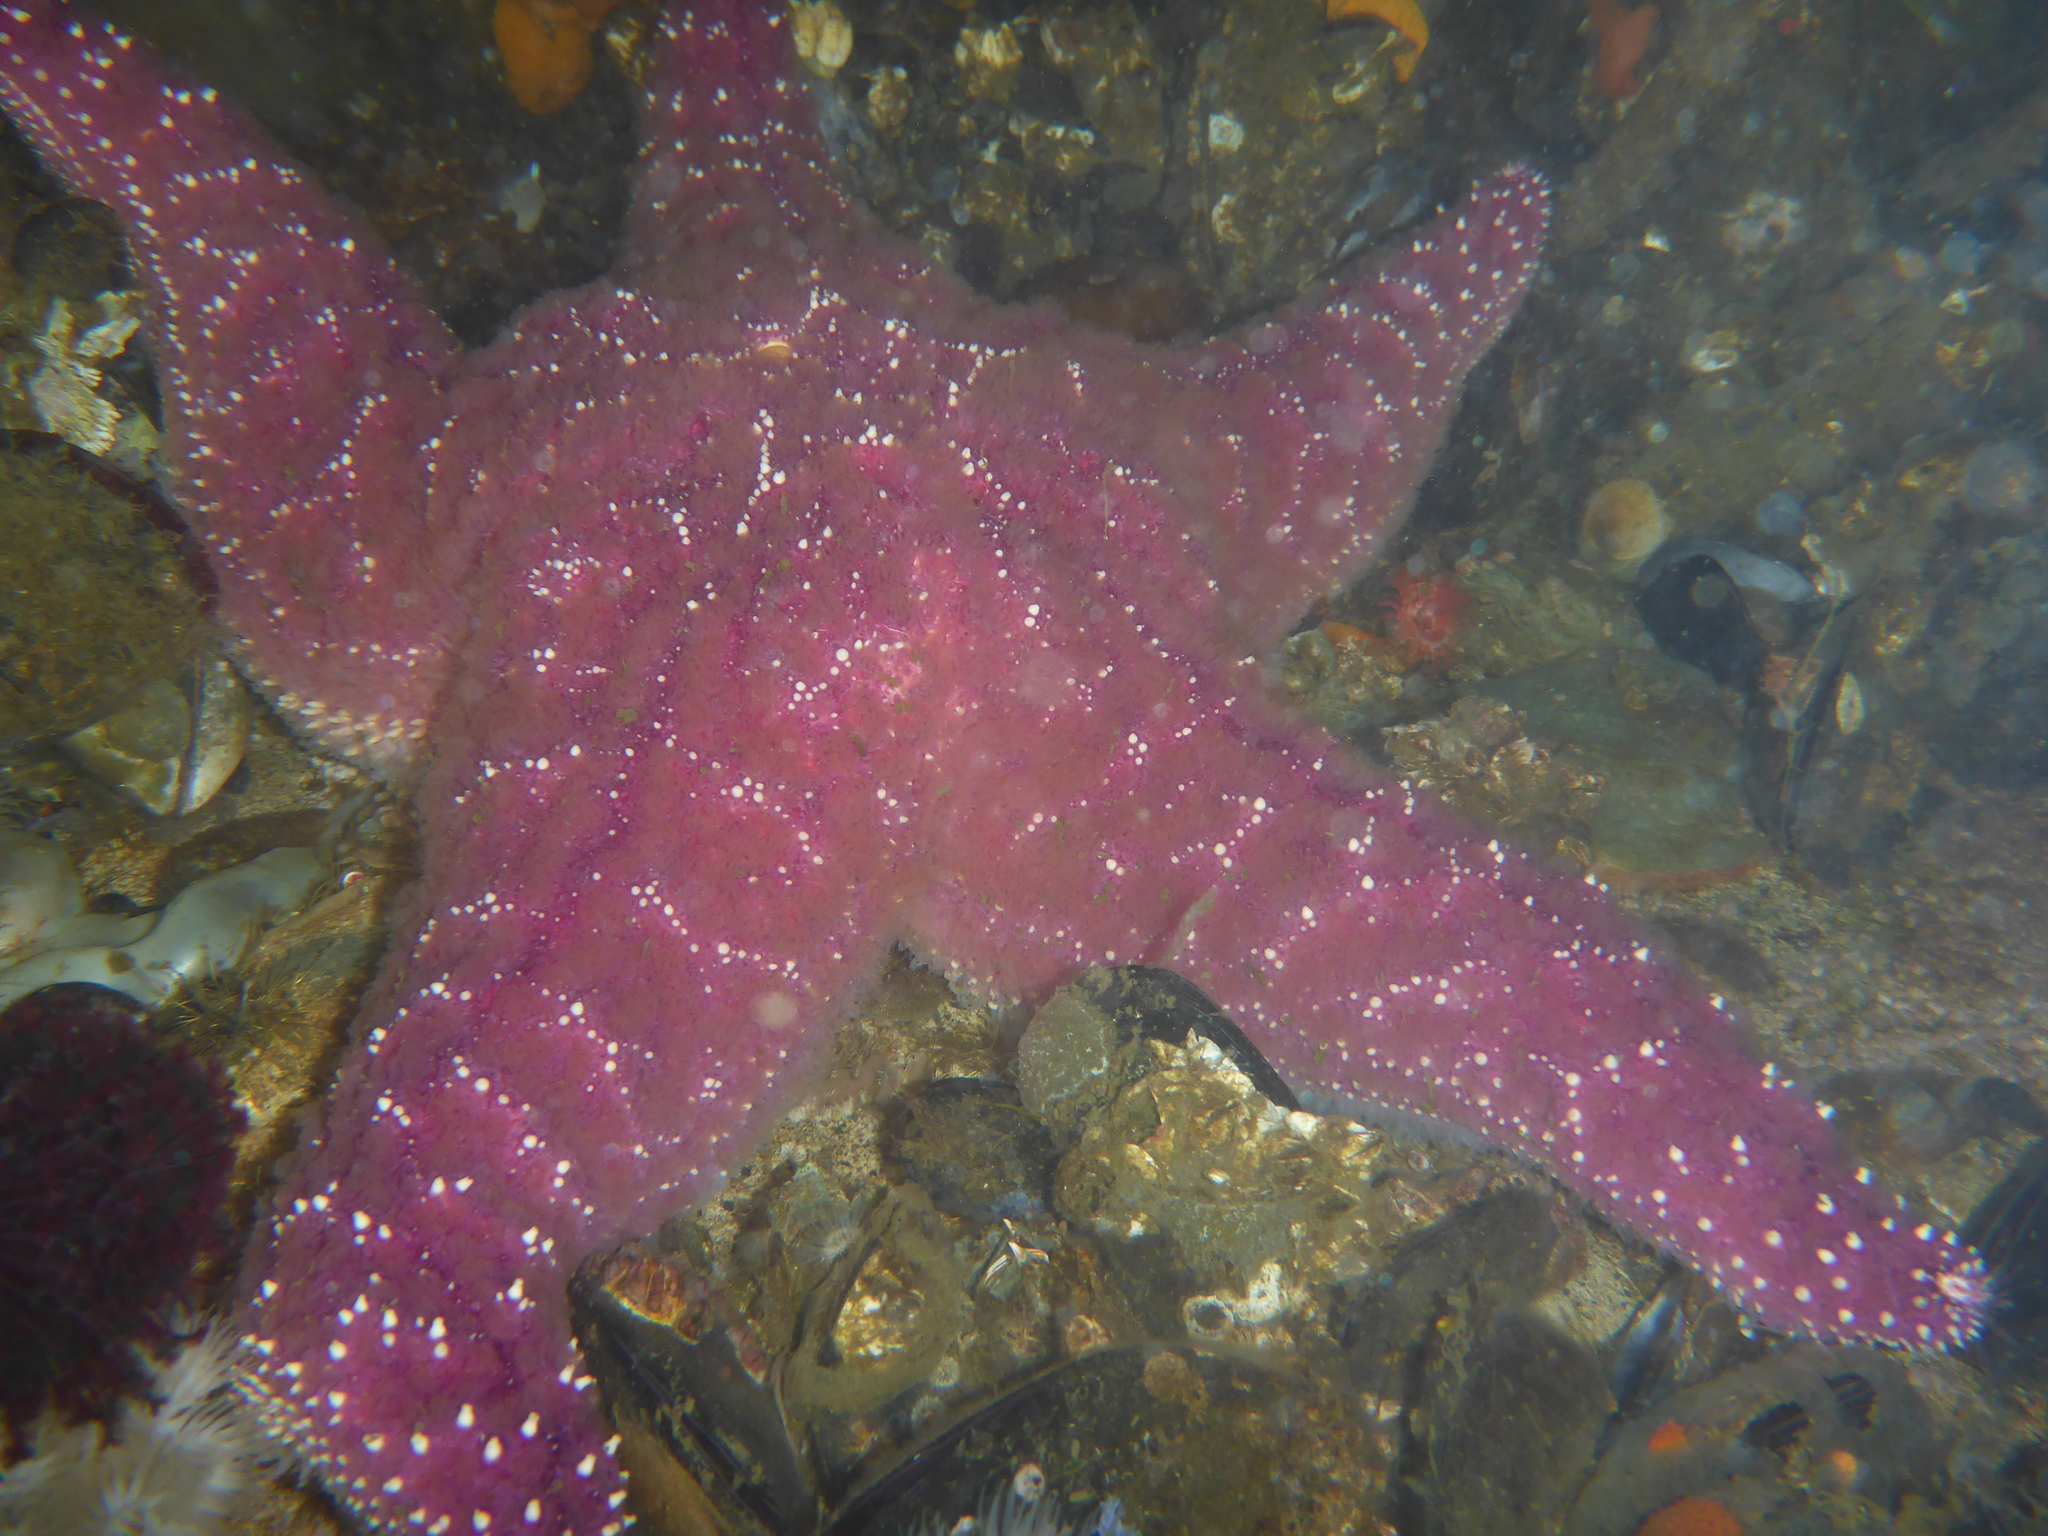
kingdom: Animalia
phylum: Echinodermata
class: Asteroidea
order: Forcipulatida
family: Asteriidae
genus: Pisaster
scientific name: Pisaster ochraceus
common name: Ochre stars
